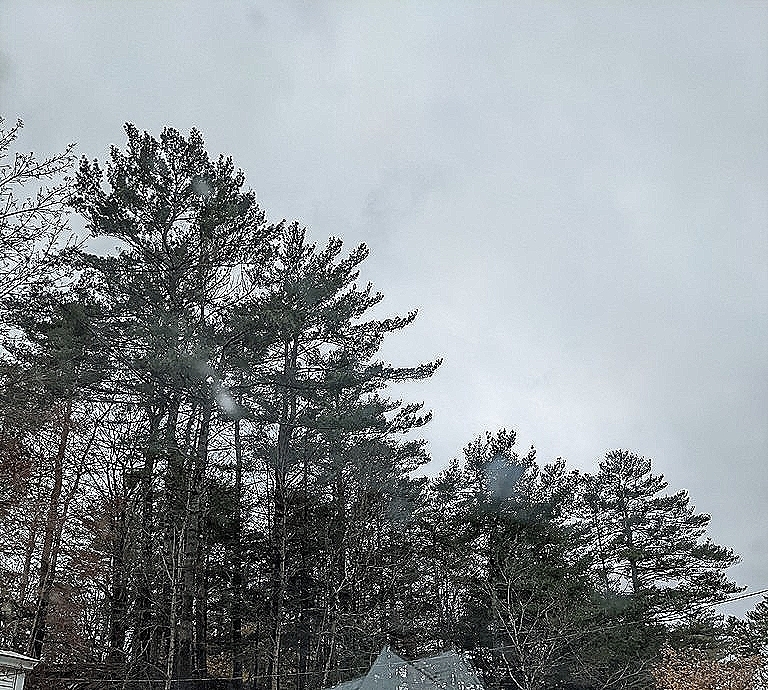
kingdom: Plantae
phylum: Tracheophyta
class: Pinopsida
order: Pinales
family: Pinaceae
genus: Pinus
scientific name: Pinus strobus
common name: Weymouth pine
